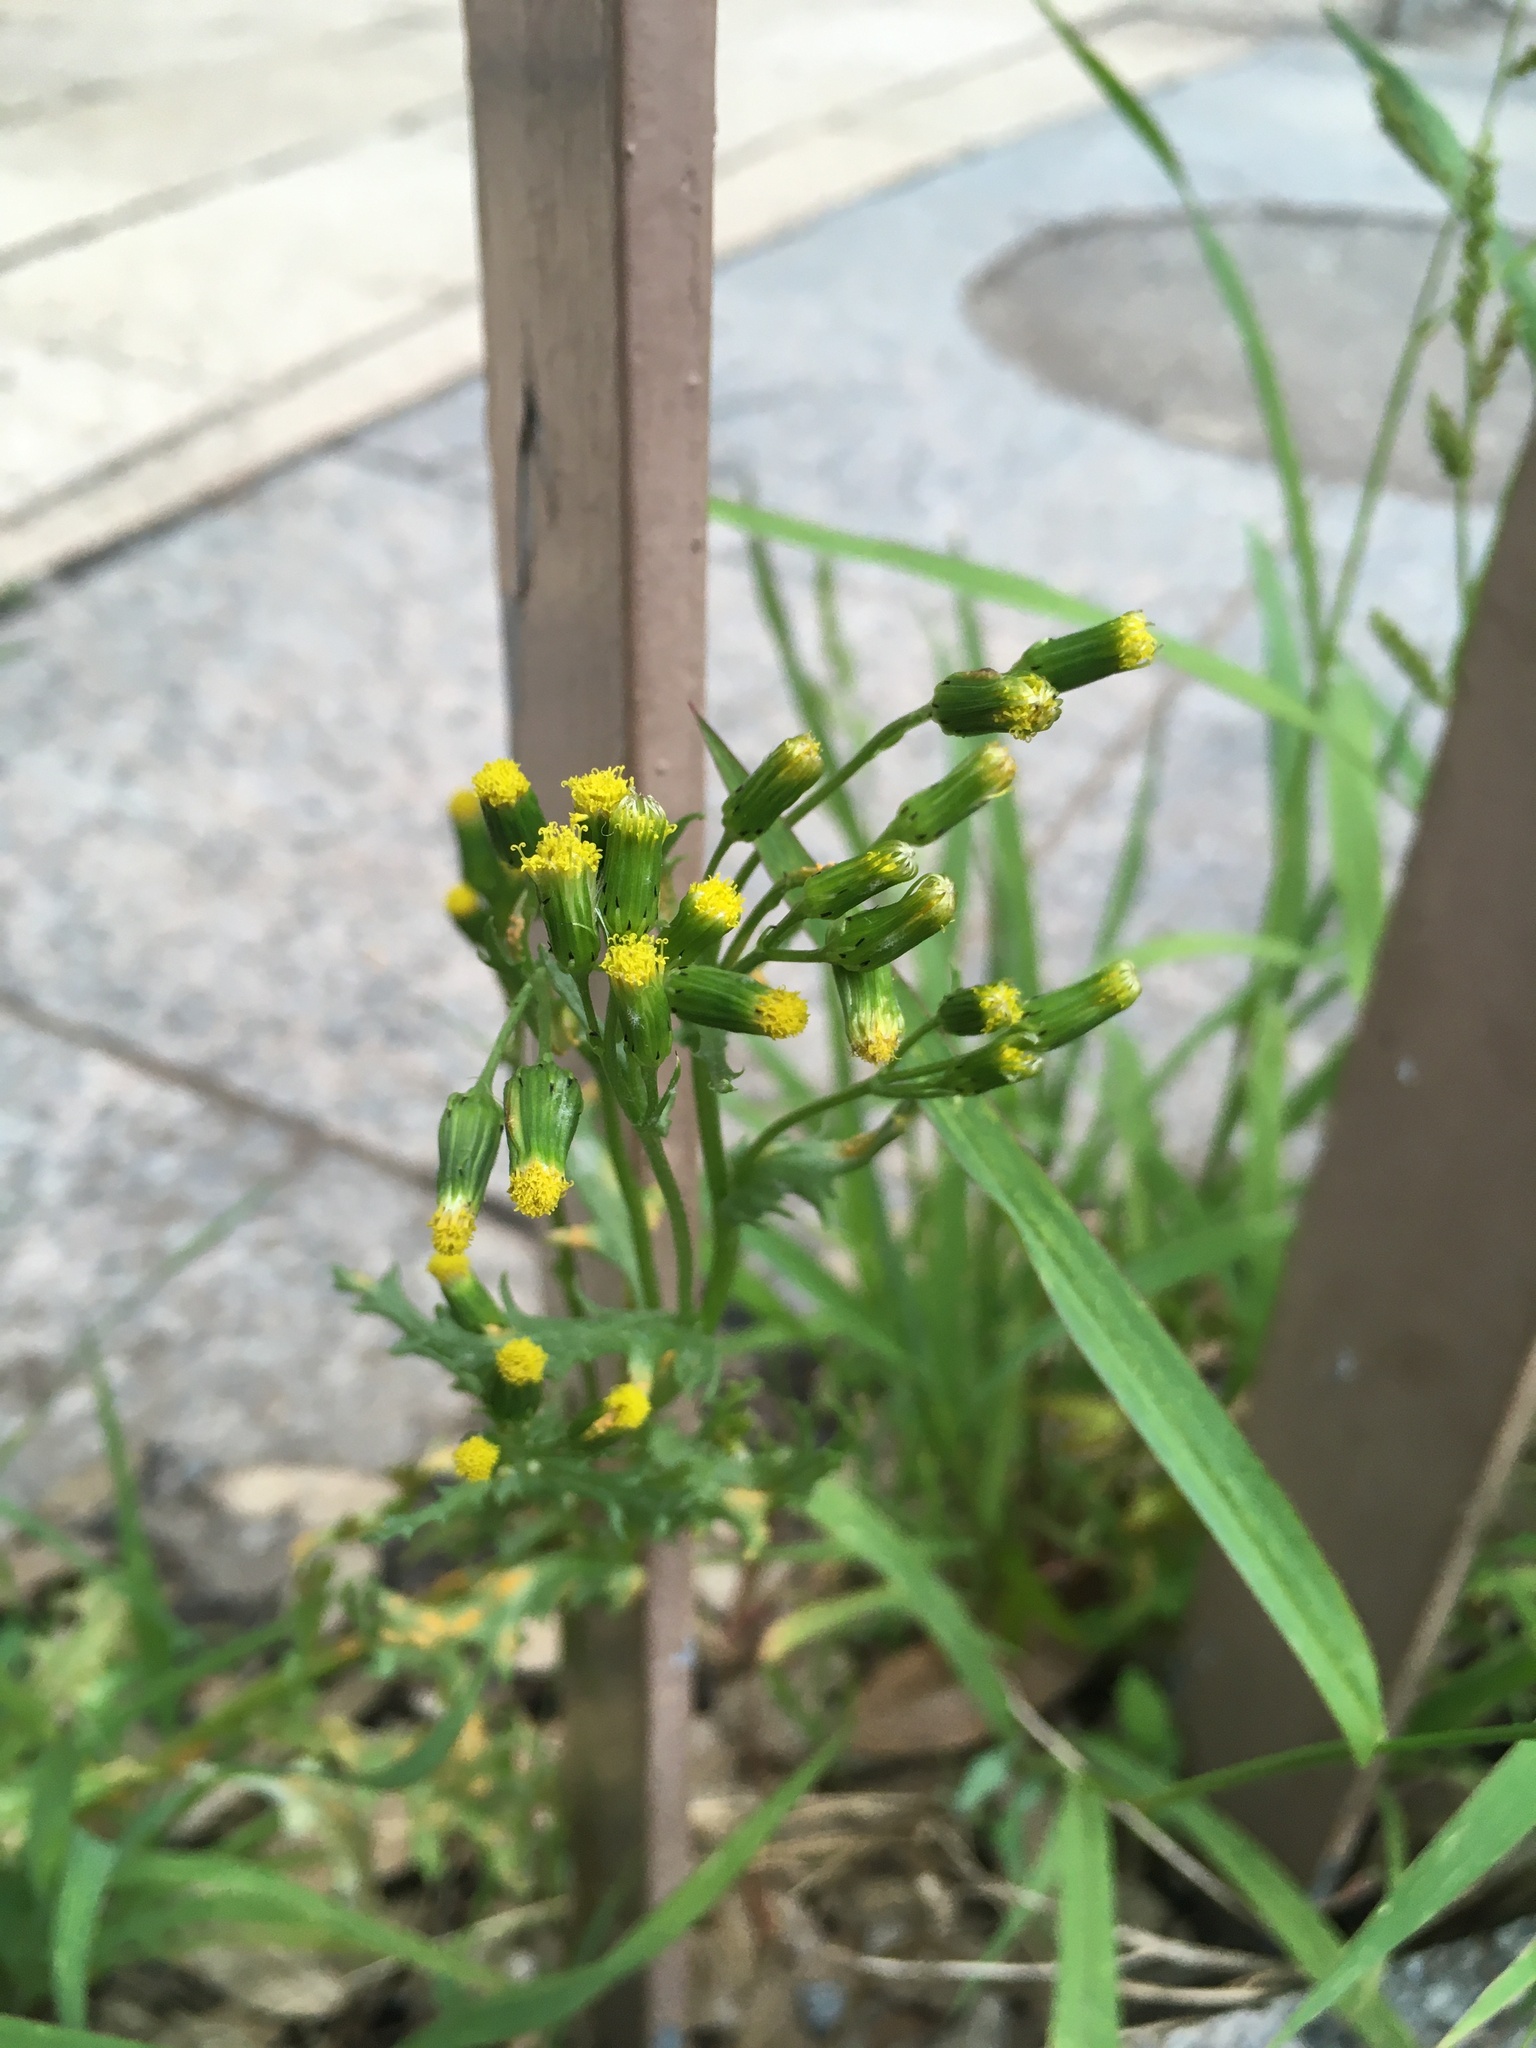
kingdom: Plantae
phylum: Tracheophyta
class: Magnoliopsida
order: Asterales
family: Asteraceae
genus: Senecio
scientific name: Senecio vulgaris
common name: Old-man-in-the-spring
